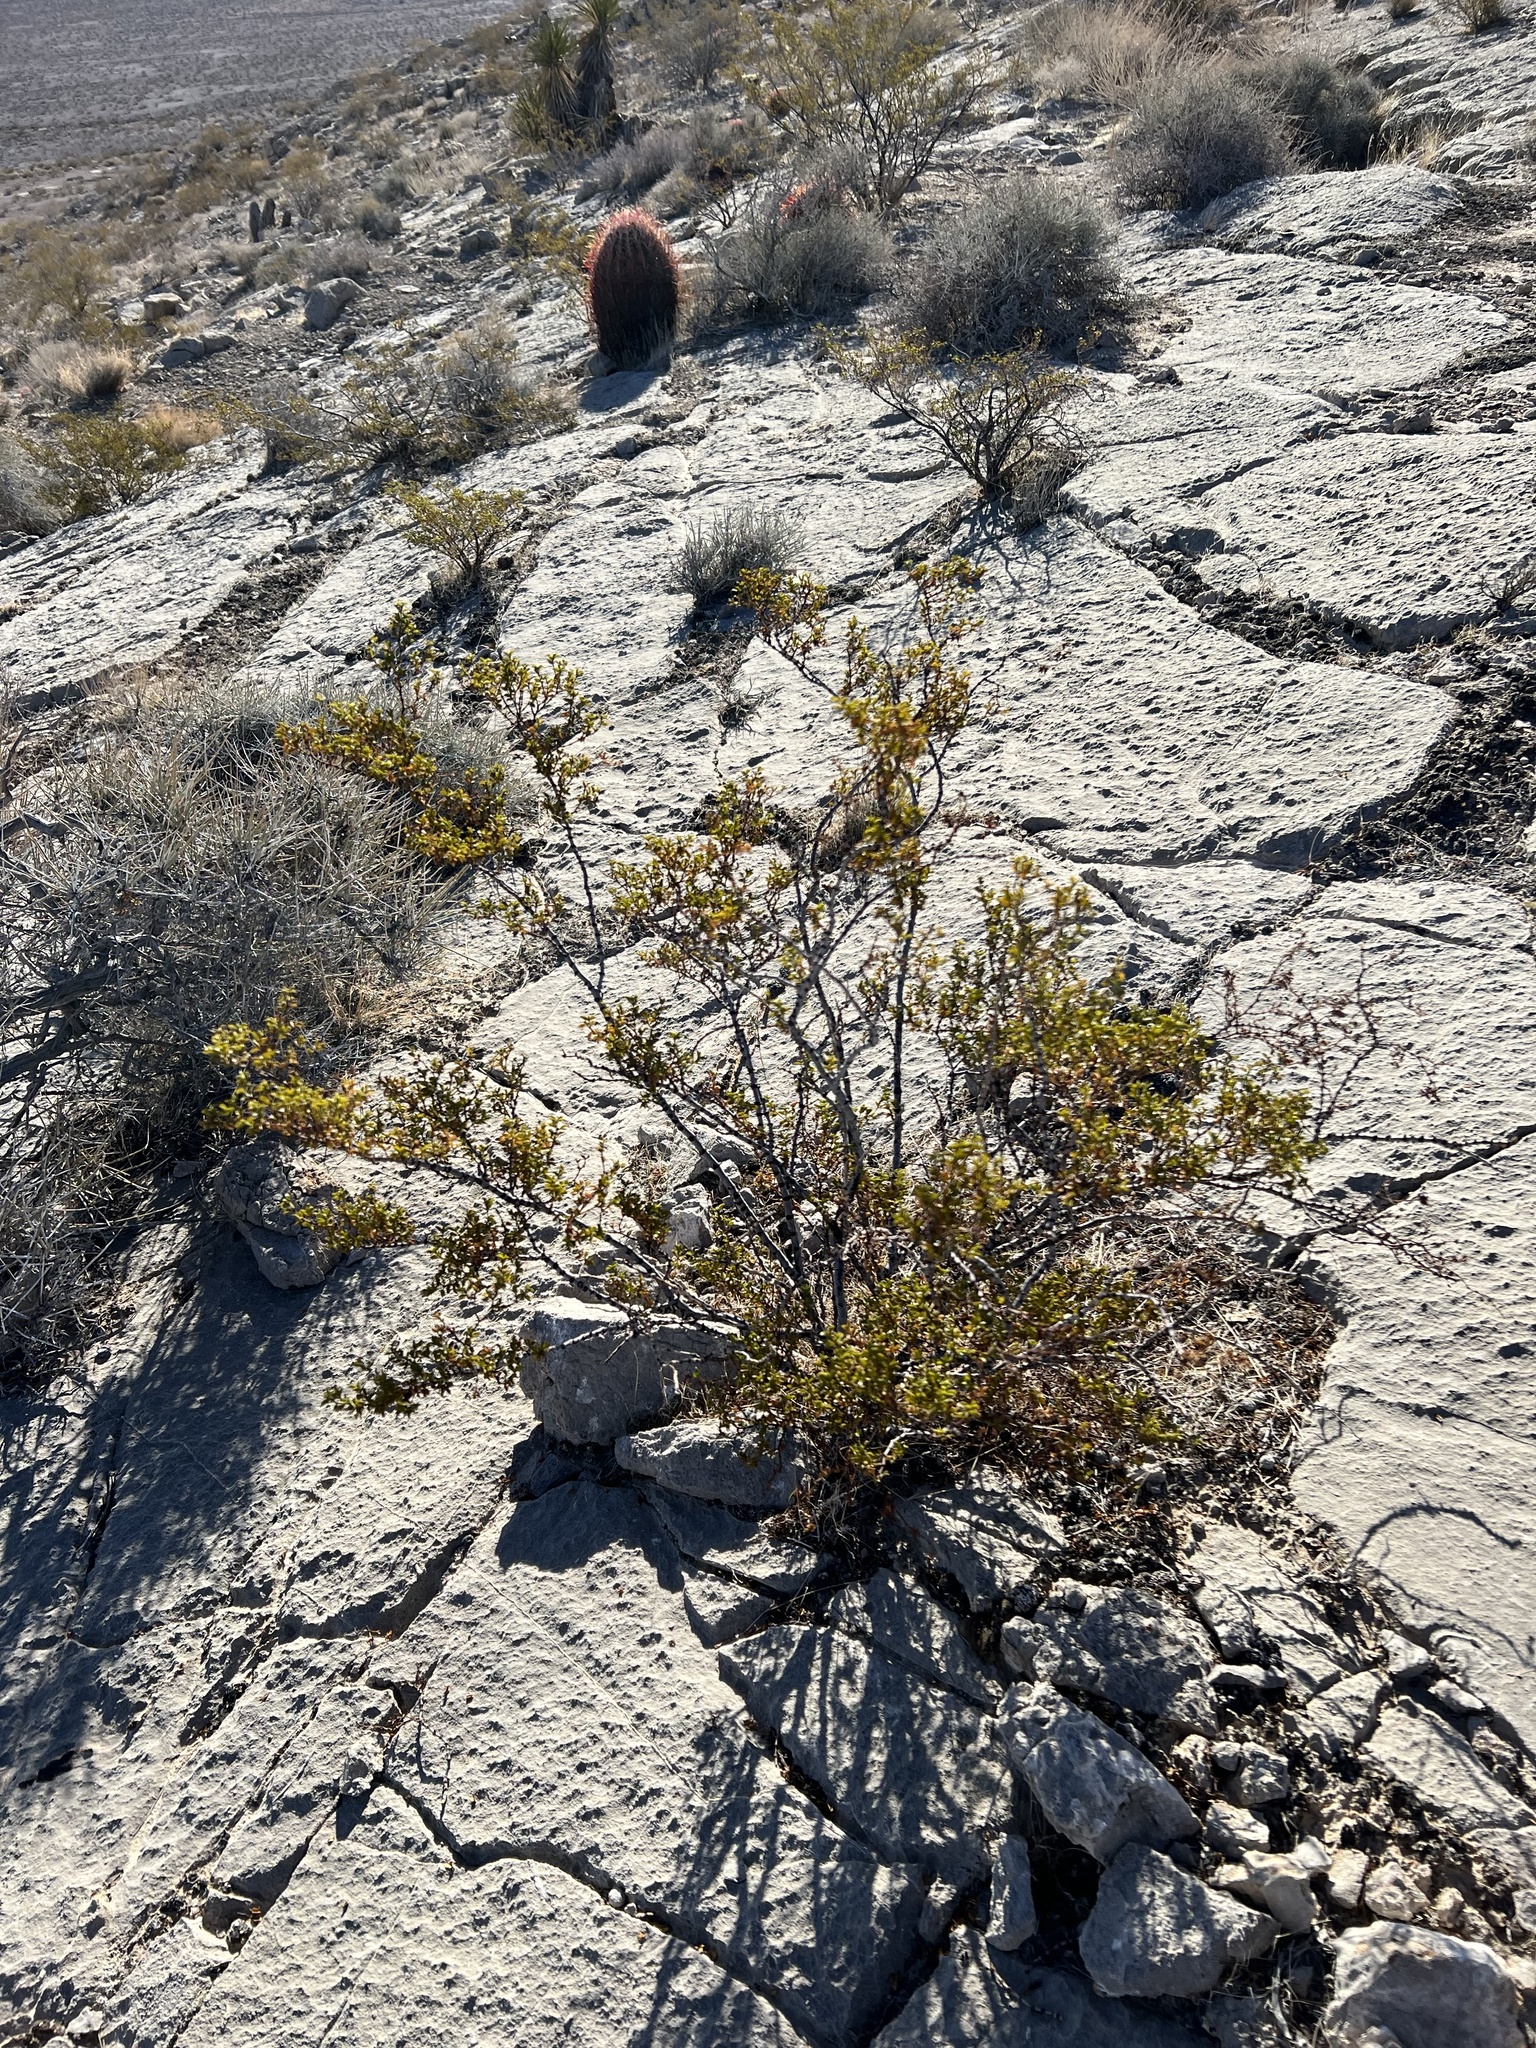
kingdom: Plantae
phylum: Tracheophyta
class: Magnoliopsida
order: Zygophyllales
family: Zygophyllaceae
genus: Larrea
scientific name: Larrea tridentata
